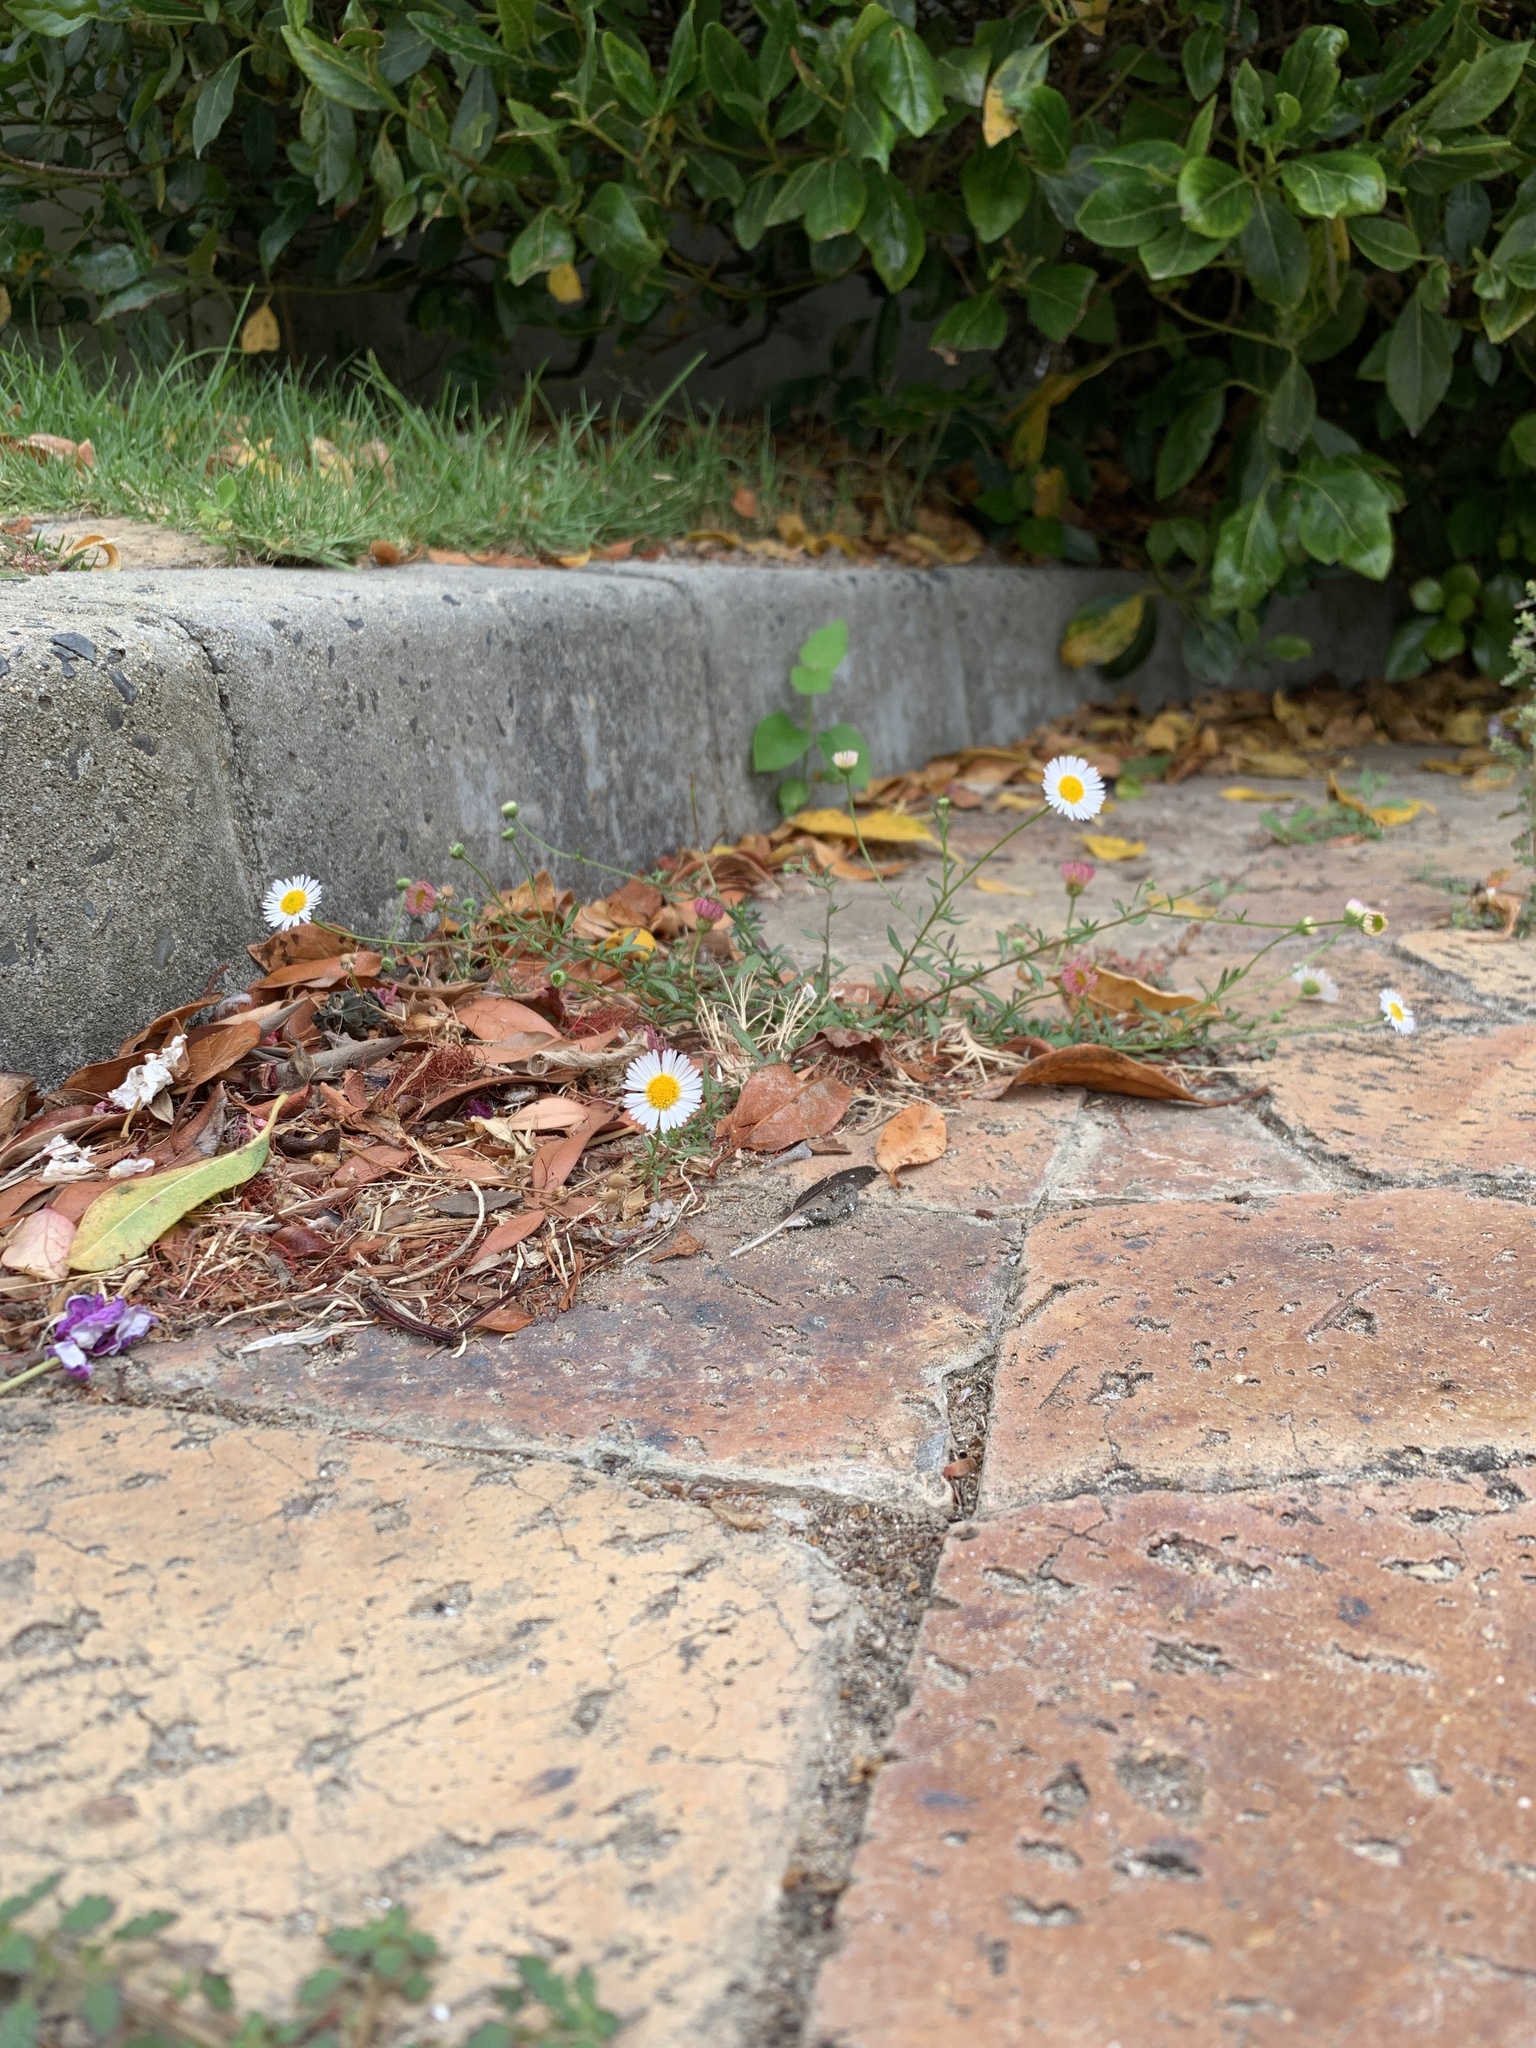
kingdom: Plantae
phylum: Tracheophyta
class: Magnoliopsida
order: Asterales
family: Asteraceae
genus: Erigeron
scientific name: Erigeron karvinskianus
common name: Mexican fleabane
